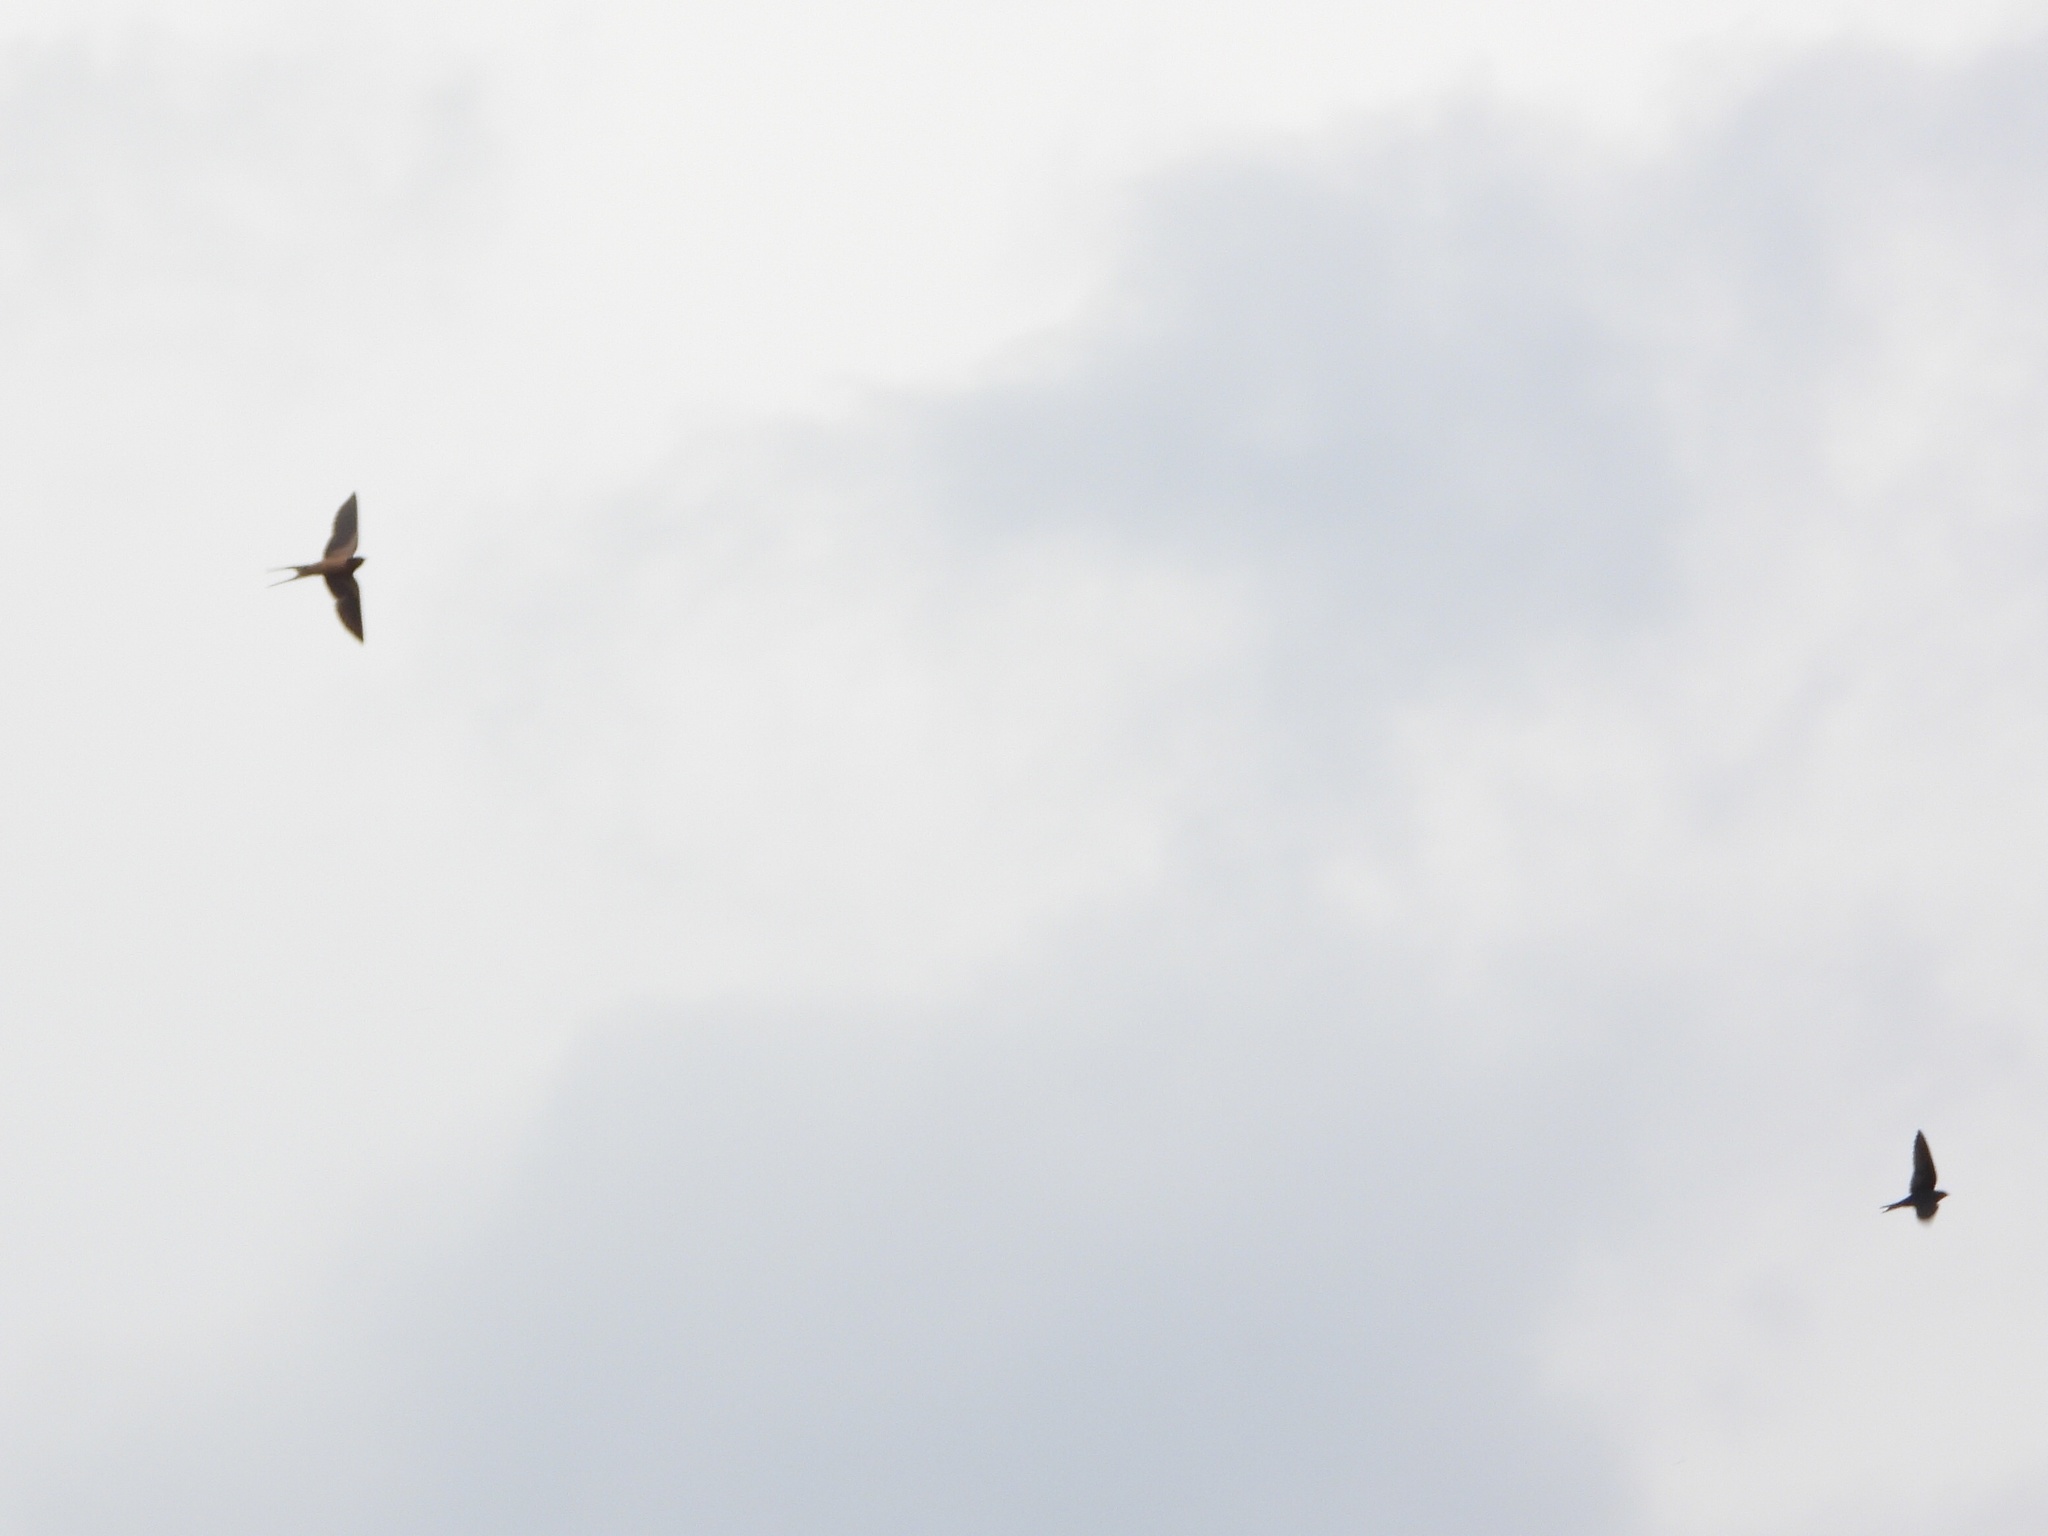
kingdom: Animalia
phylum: Chordata
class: Aves
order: Passeriformes
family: Hirundinidae
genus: Hirundo
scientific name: Hirundo rustica
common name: Barn swallow
